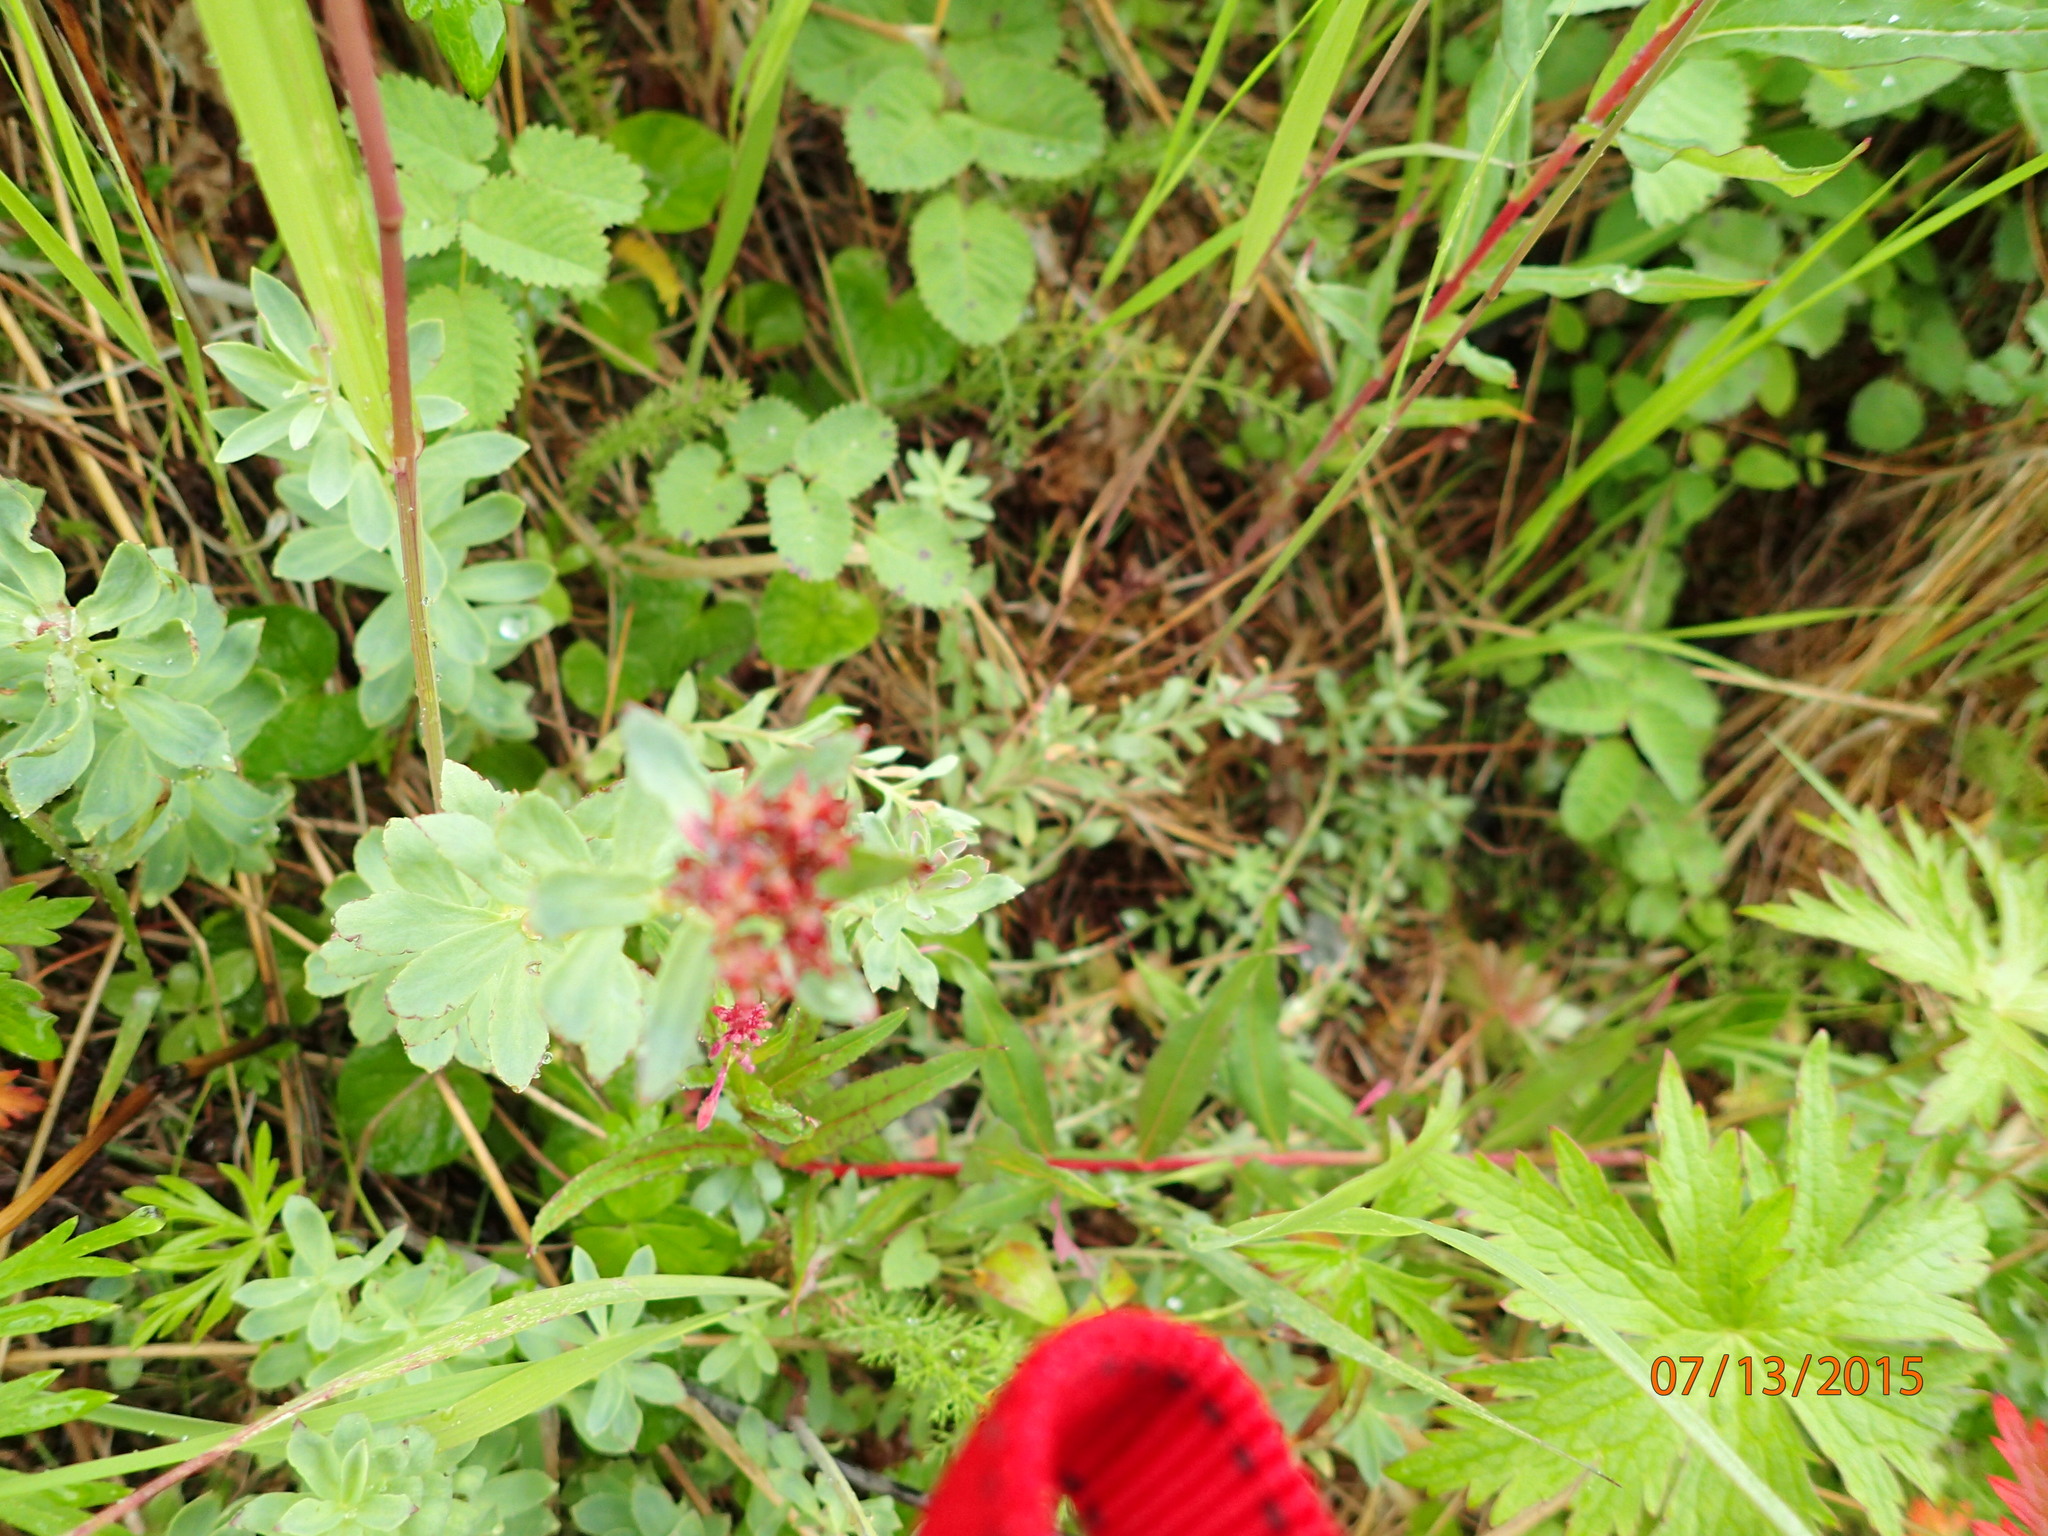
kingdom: Plantae
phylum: Tracheophyta
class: Magnoliopsida
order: Saxifragales
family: Crassulaceae
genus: Rhodiola
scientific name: Rhodiola integrifolia
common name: Western roseroot
